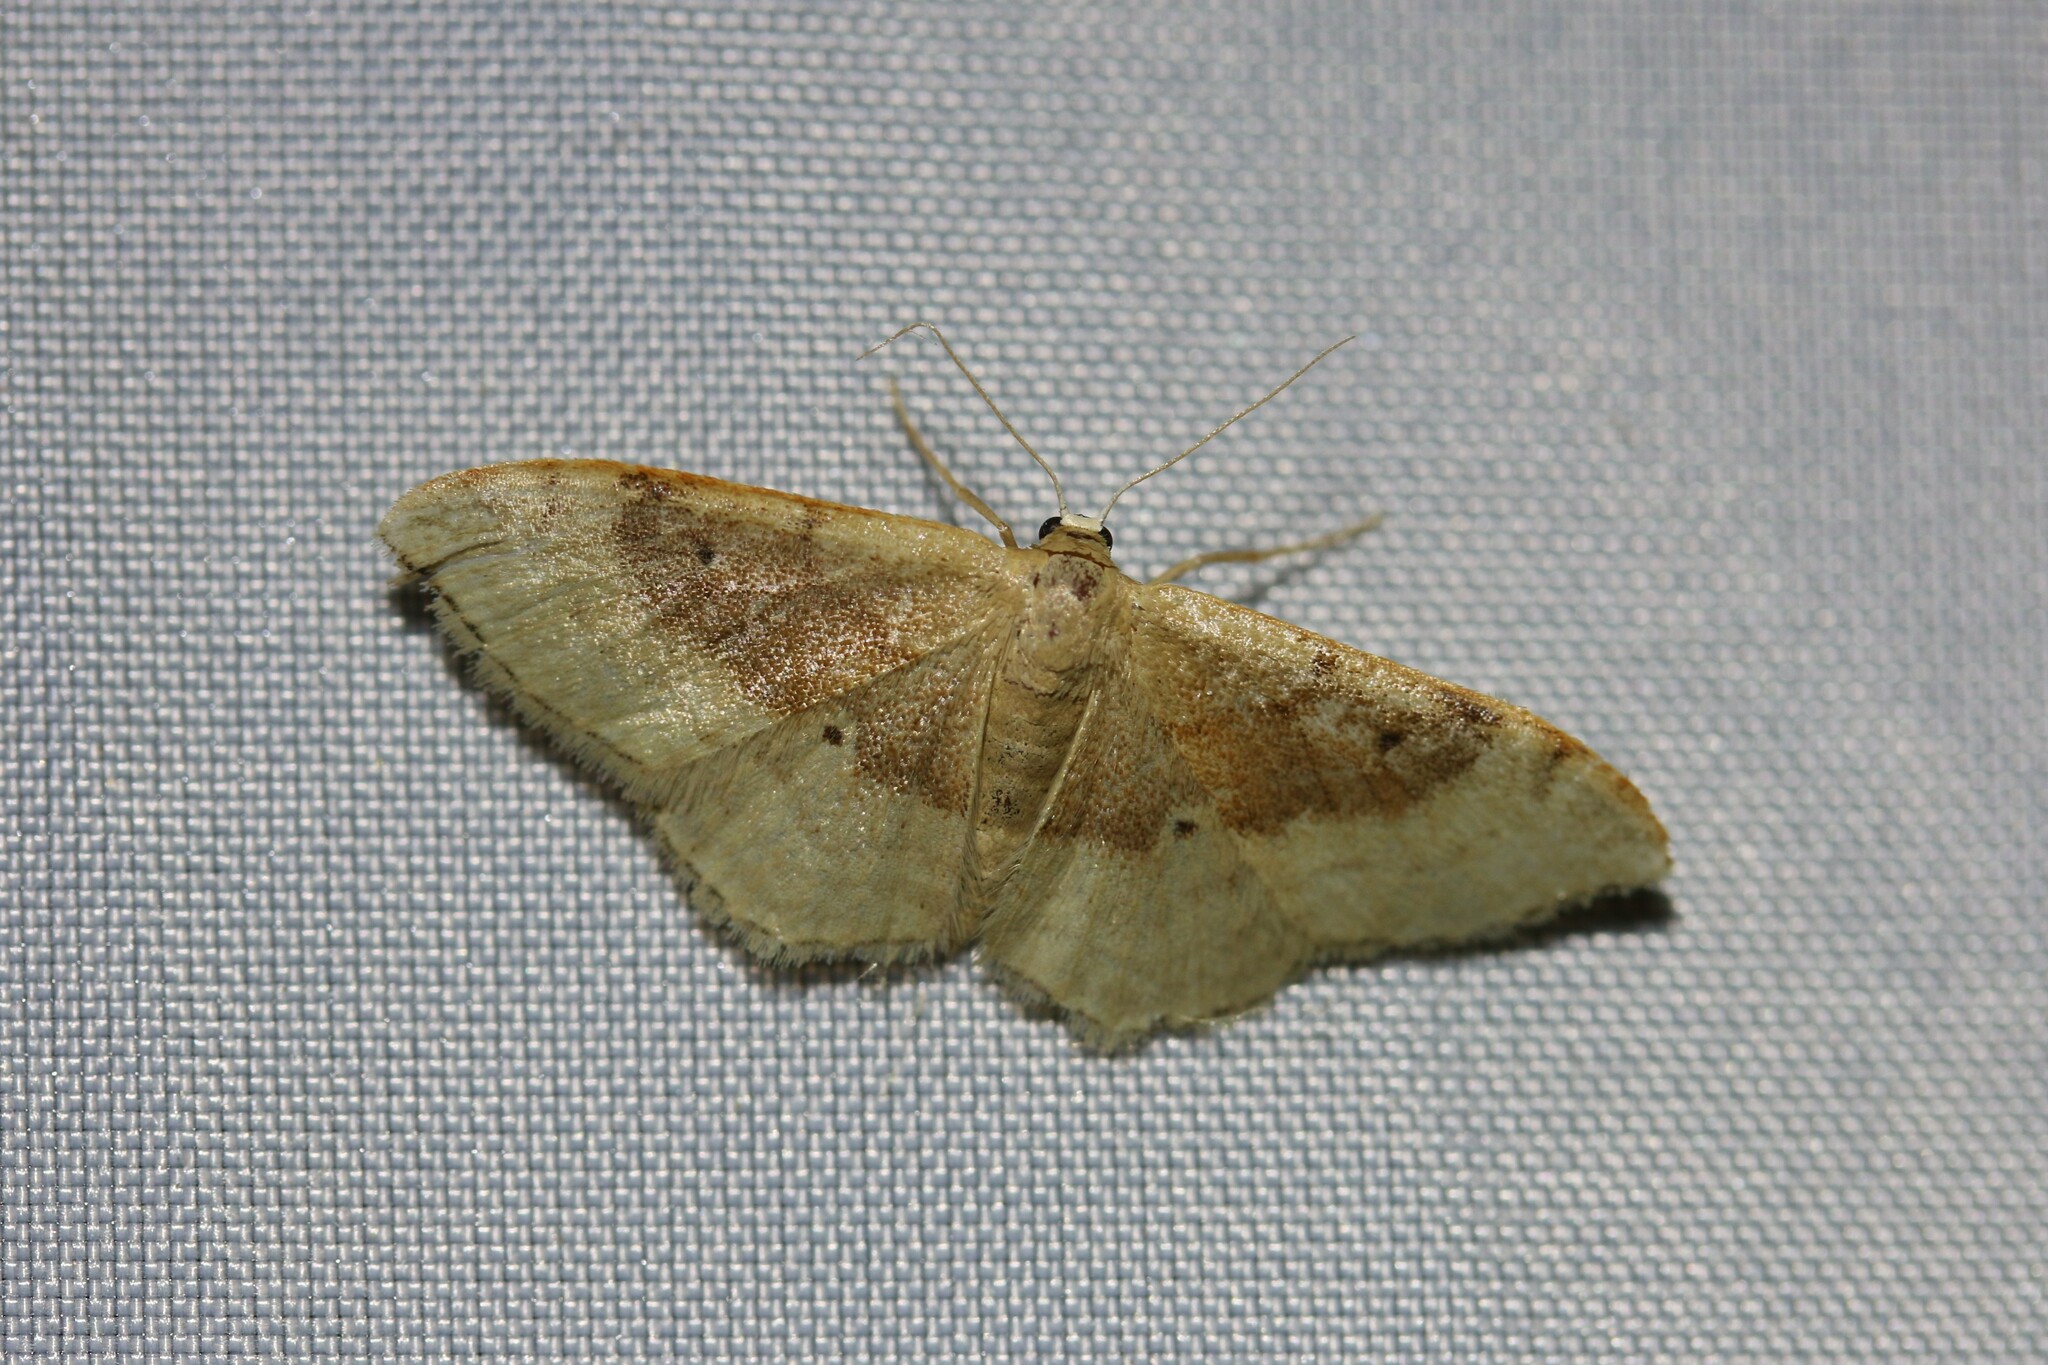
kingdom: Animalia
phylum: Arthropoda
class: Insecta
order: Lepidoptera
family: Geometridae
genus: Idaea
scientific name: Idaea degeneraria
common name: Portland ribbon wave
